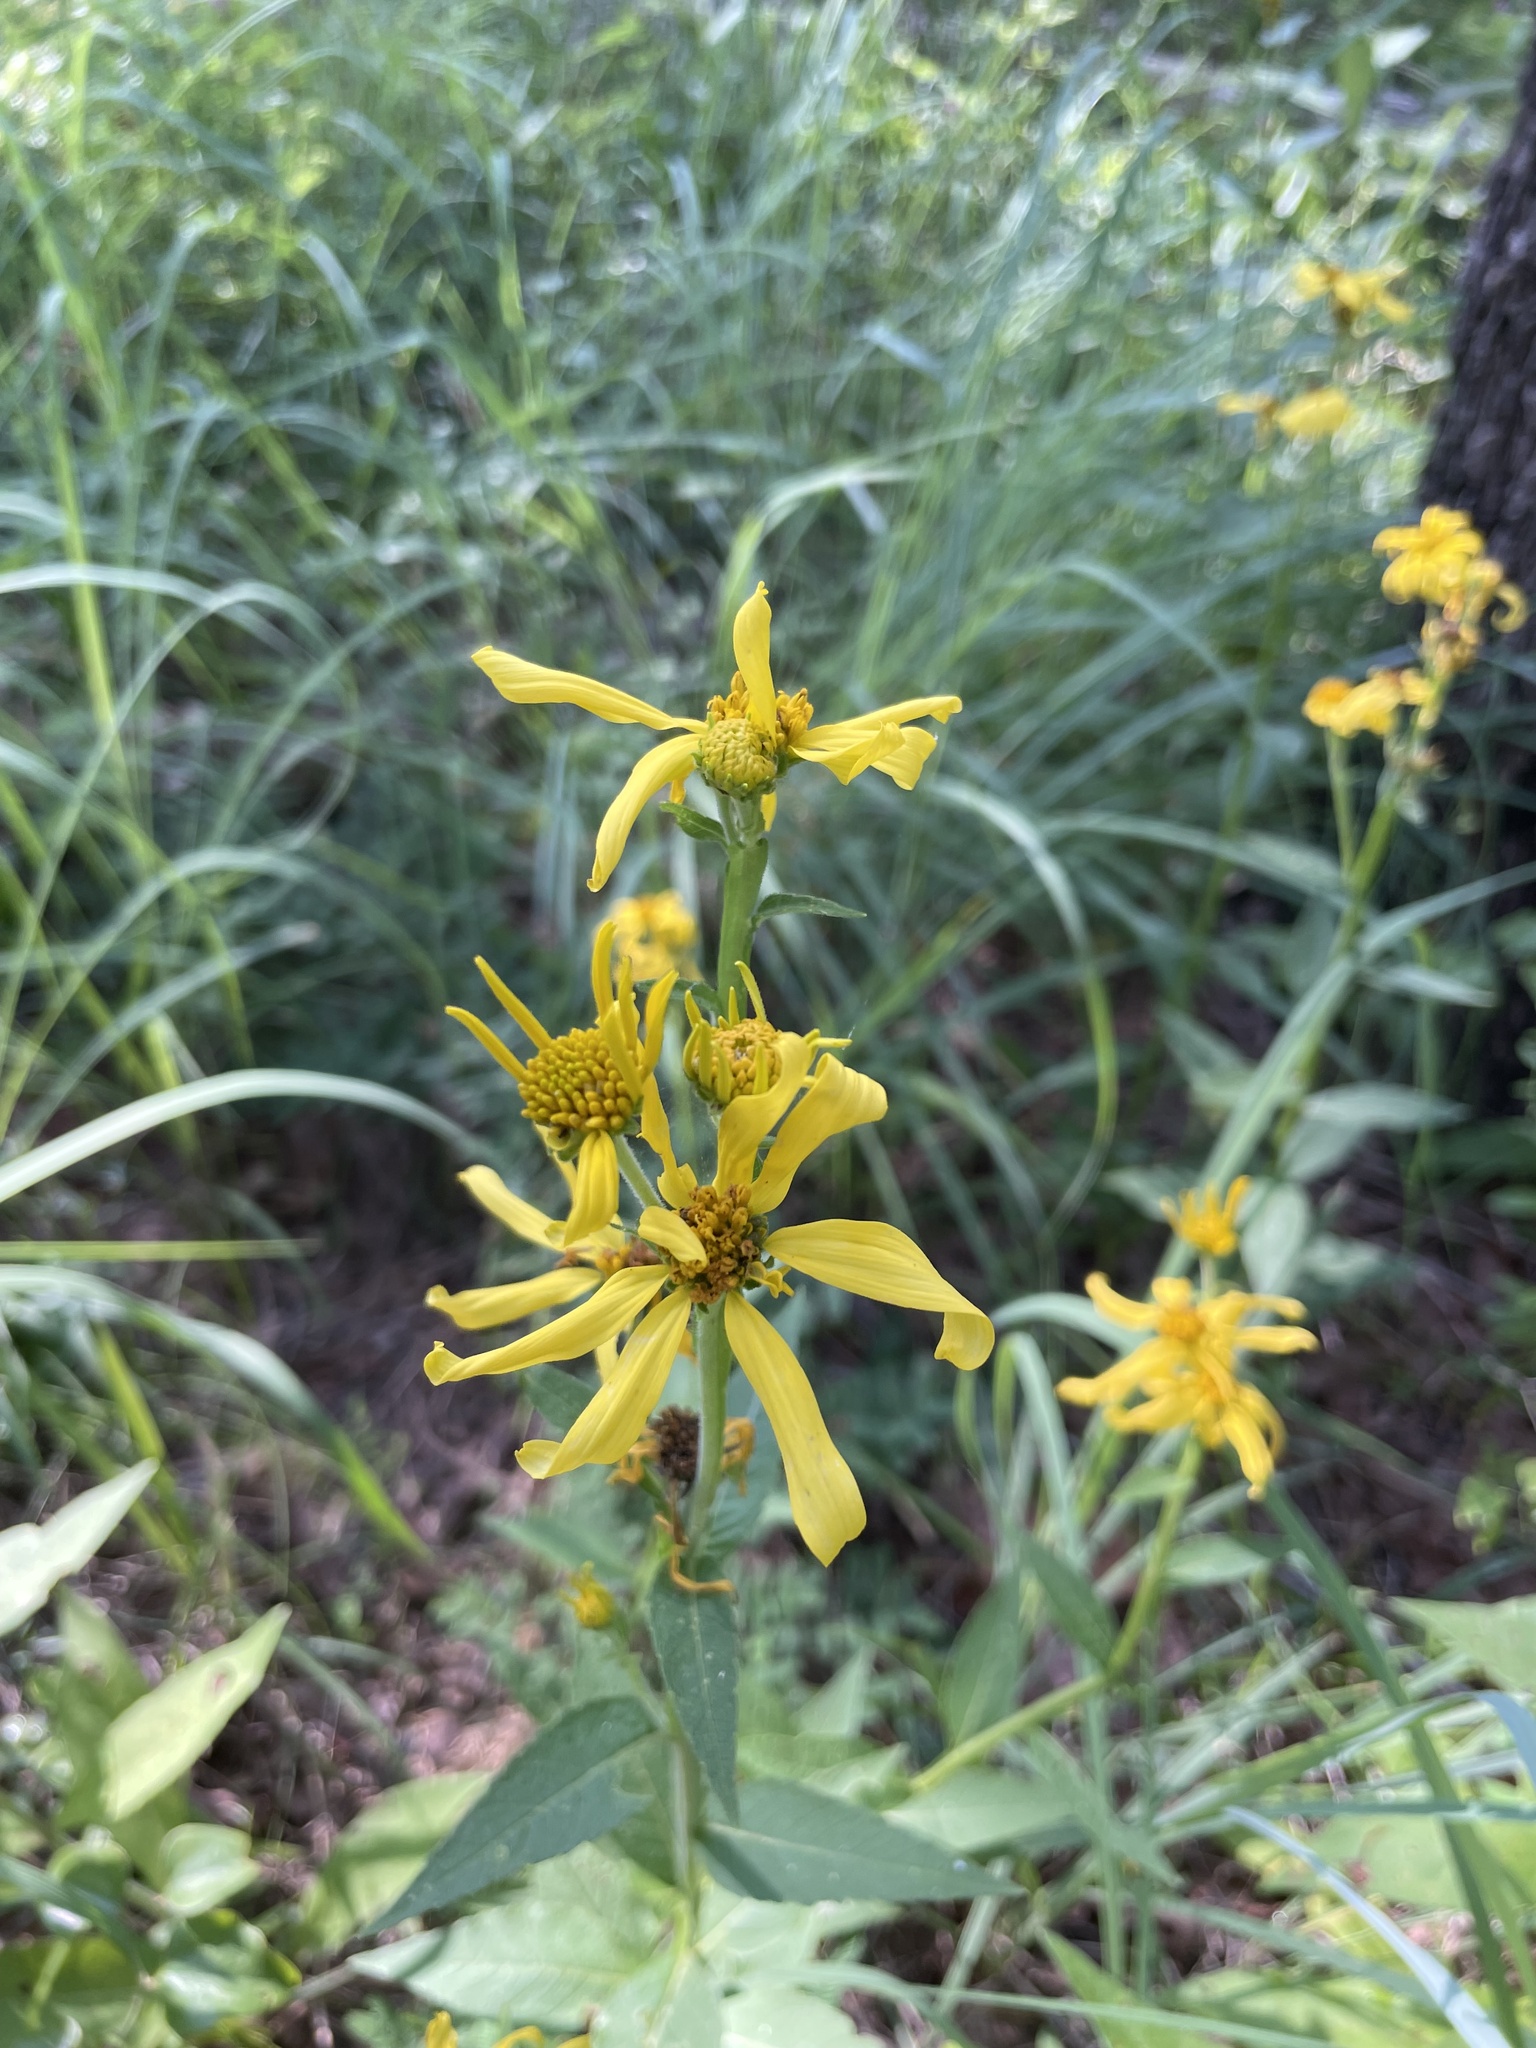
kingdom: Plantae
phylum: Tracheophyta
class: Magnoliopsida
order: Asterales
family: Asteraceae
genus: Verbesina
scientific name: Verbesina helianthoides
